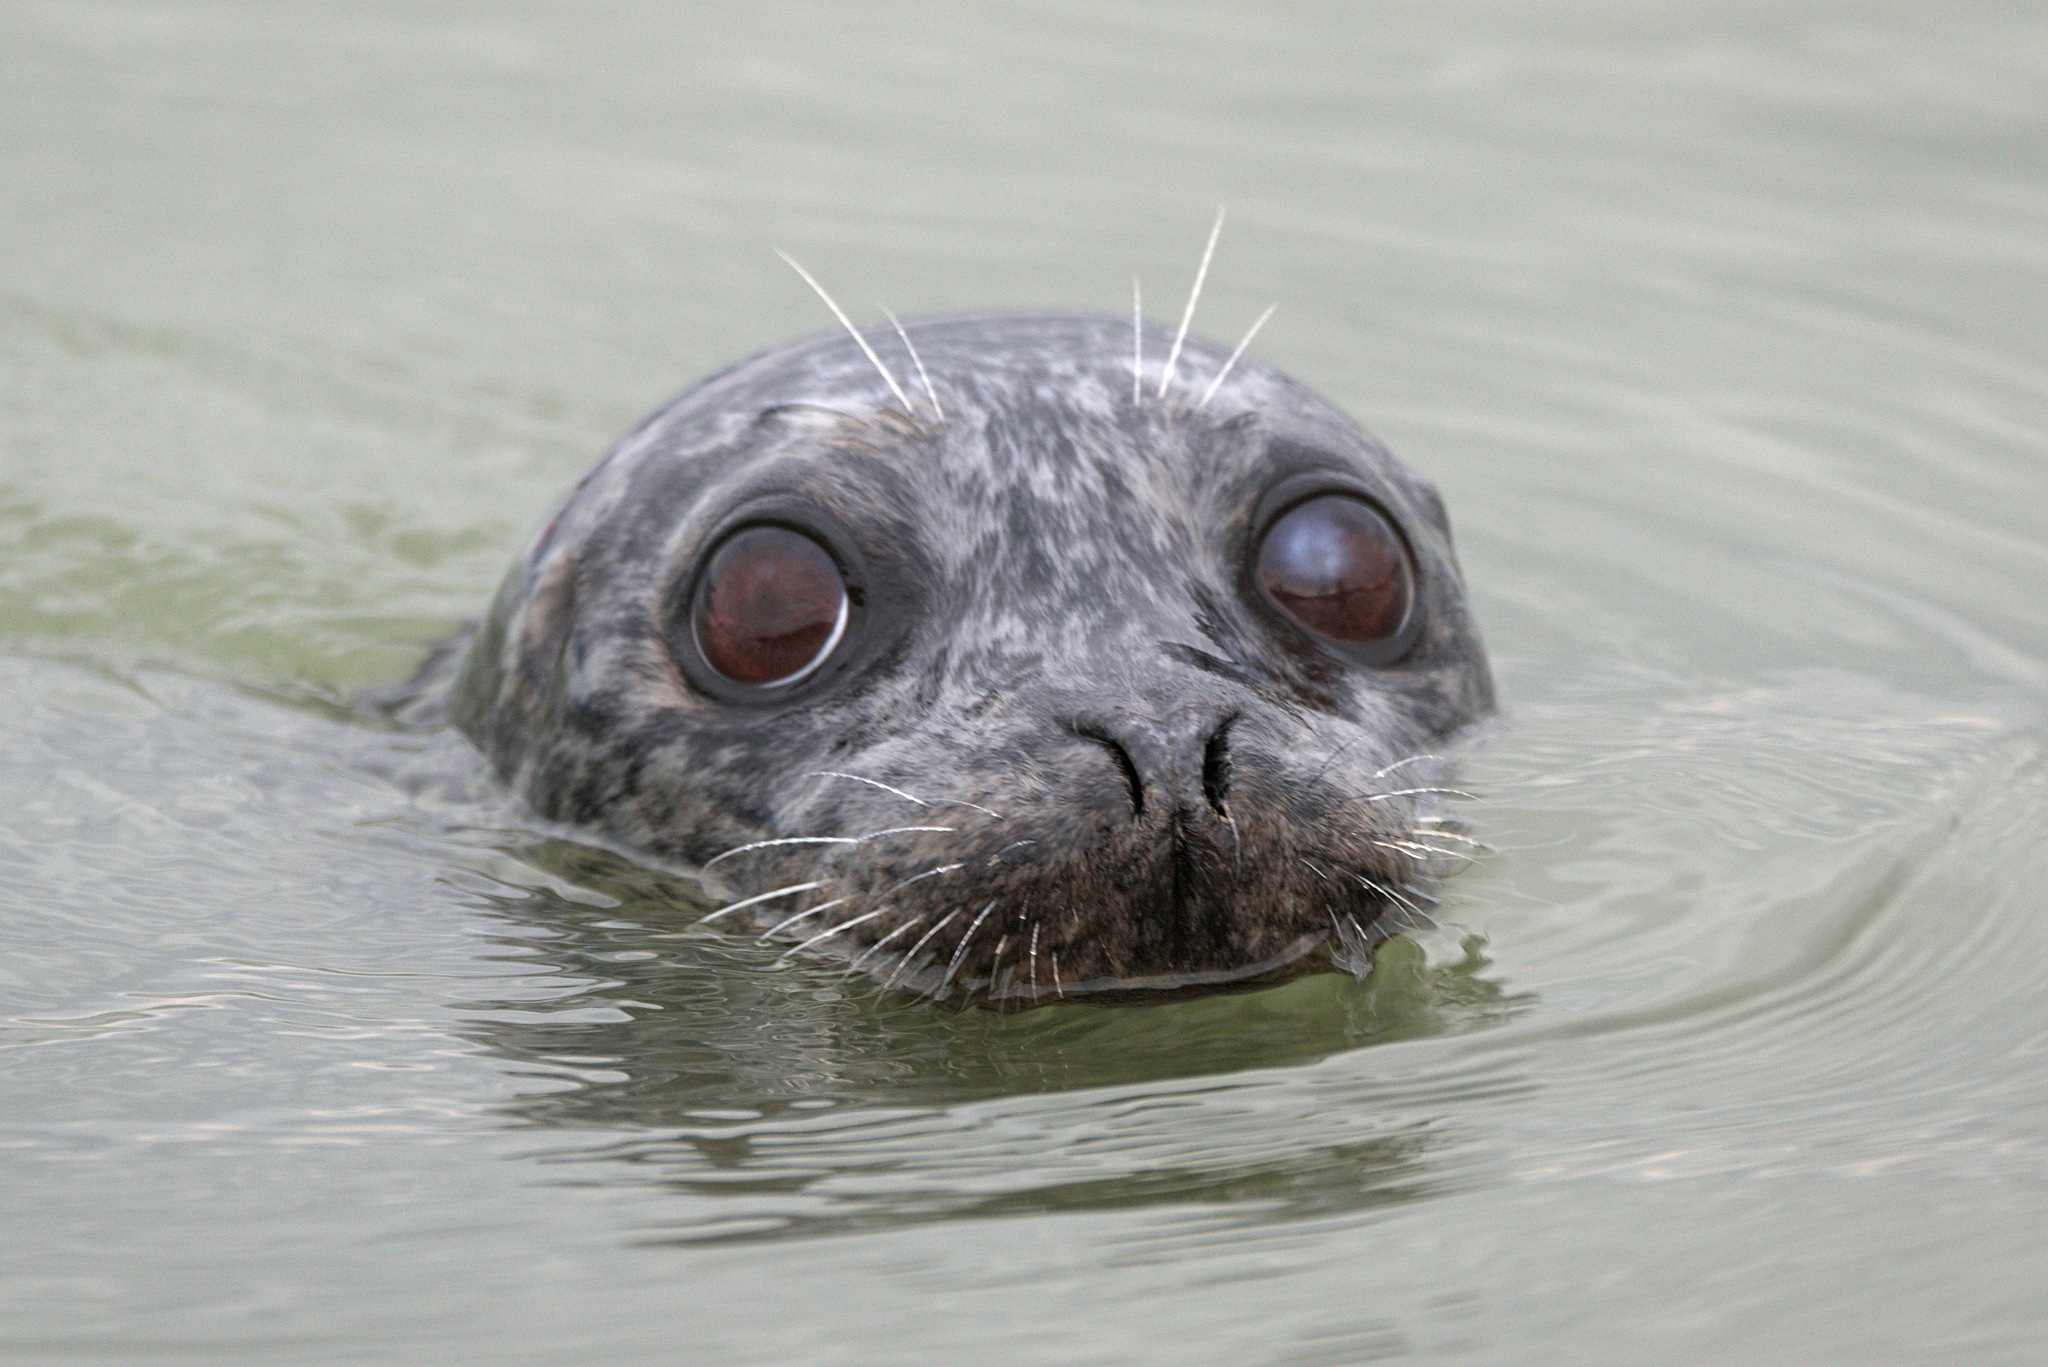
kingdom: Animalia
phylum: Chordata
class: Mammalia
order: Carnivora
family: Phocidae
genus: Phoca
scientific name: Phoca vitulina
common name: Harbor seal
